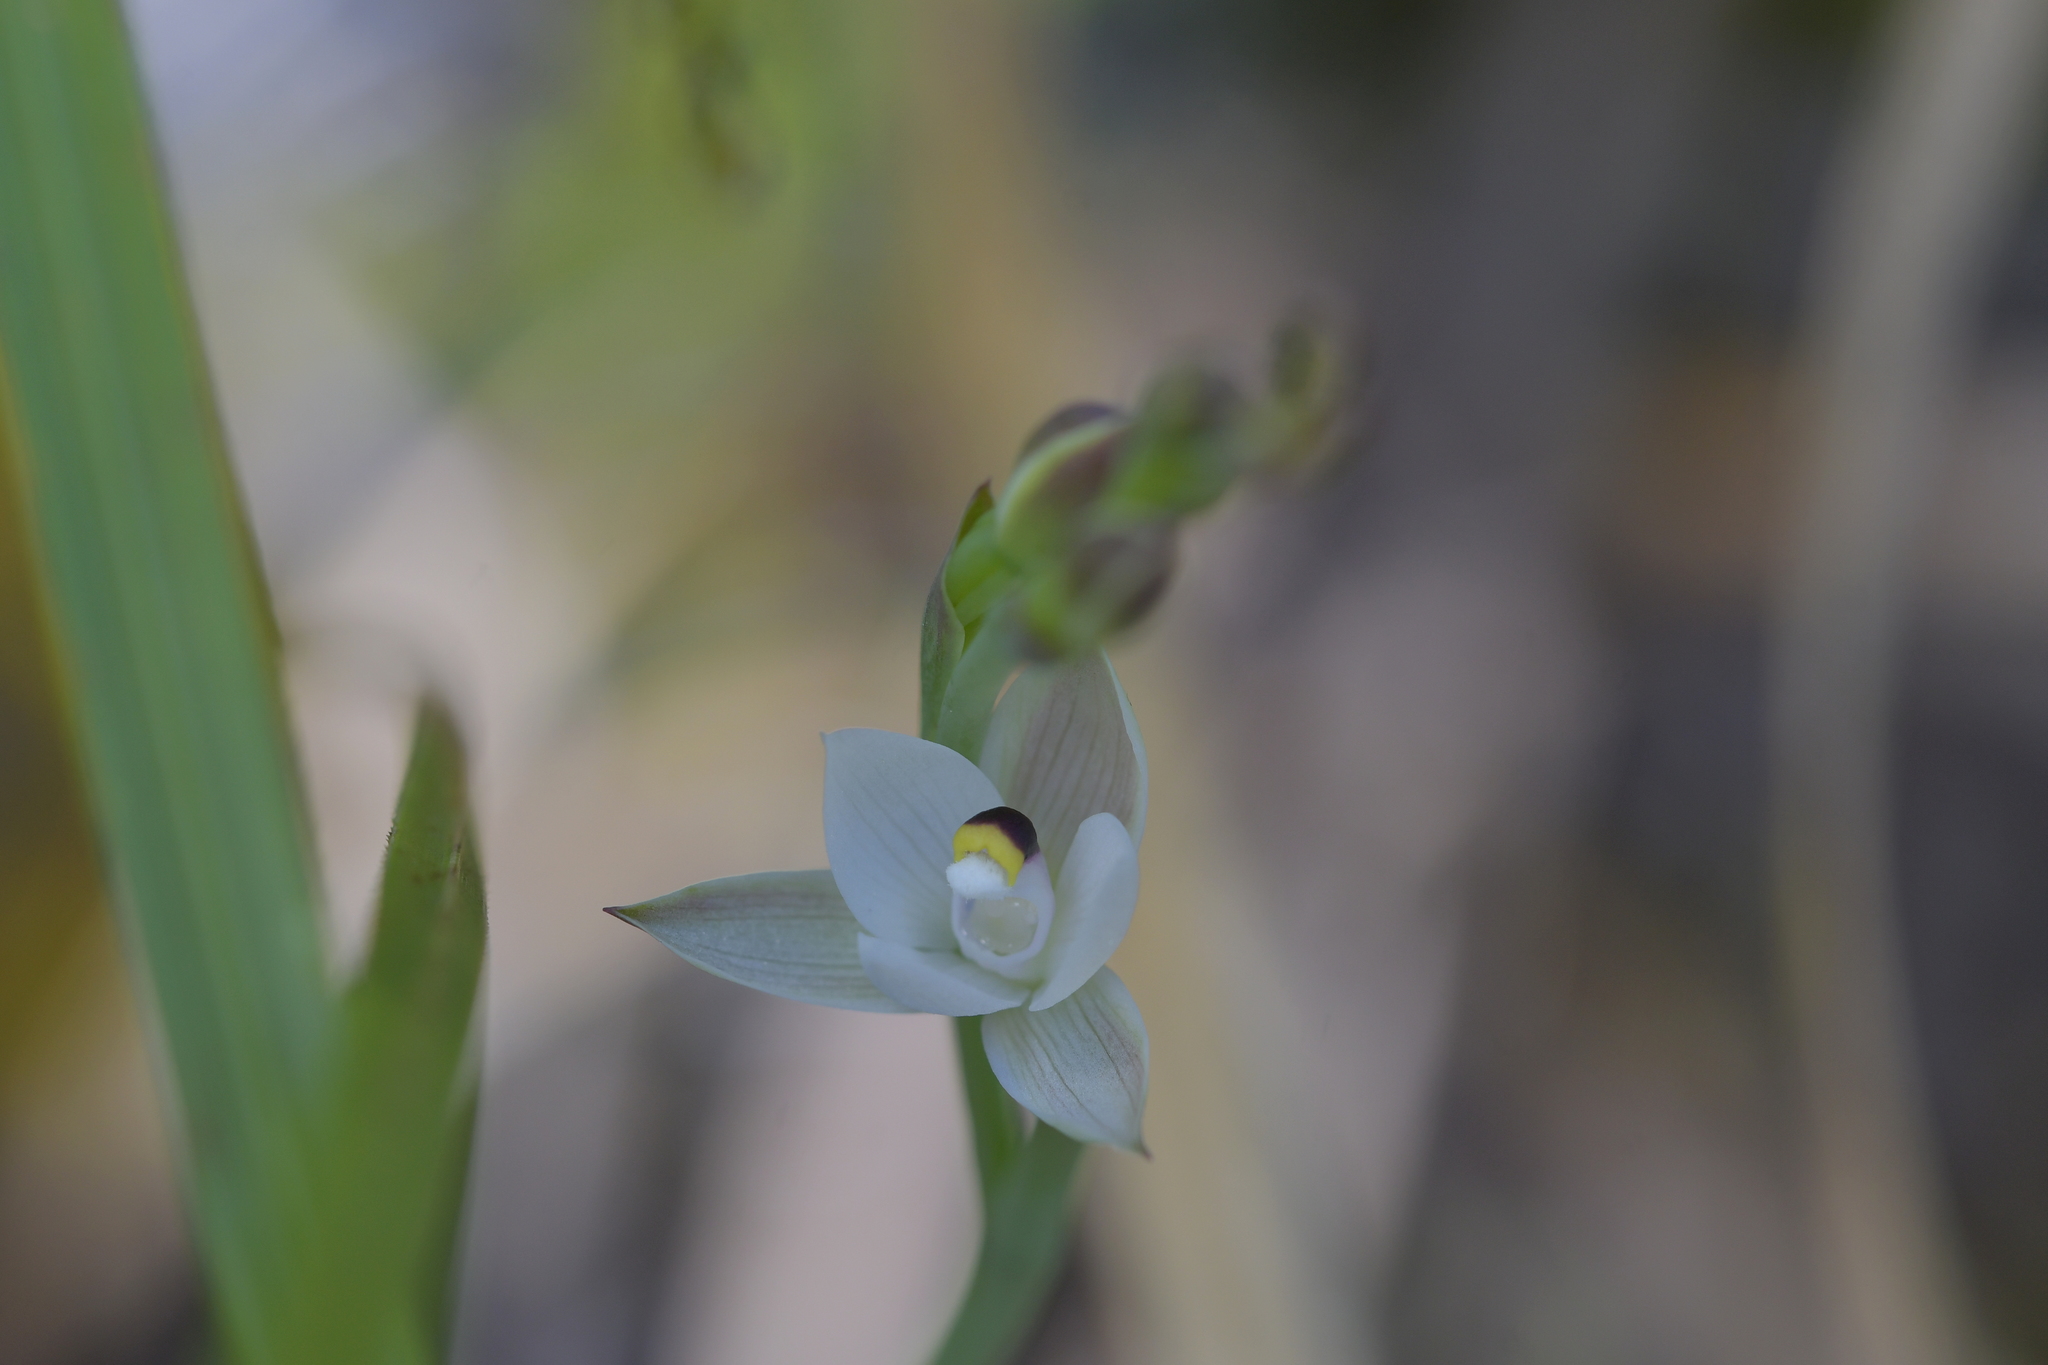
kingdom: Plantae
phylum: Tracheophyta
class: Liliopsida
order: Asparagales
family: Orchidaceae
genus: Thelymitra
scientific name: Thelymitra longifolia
